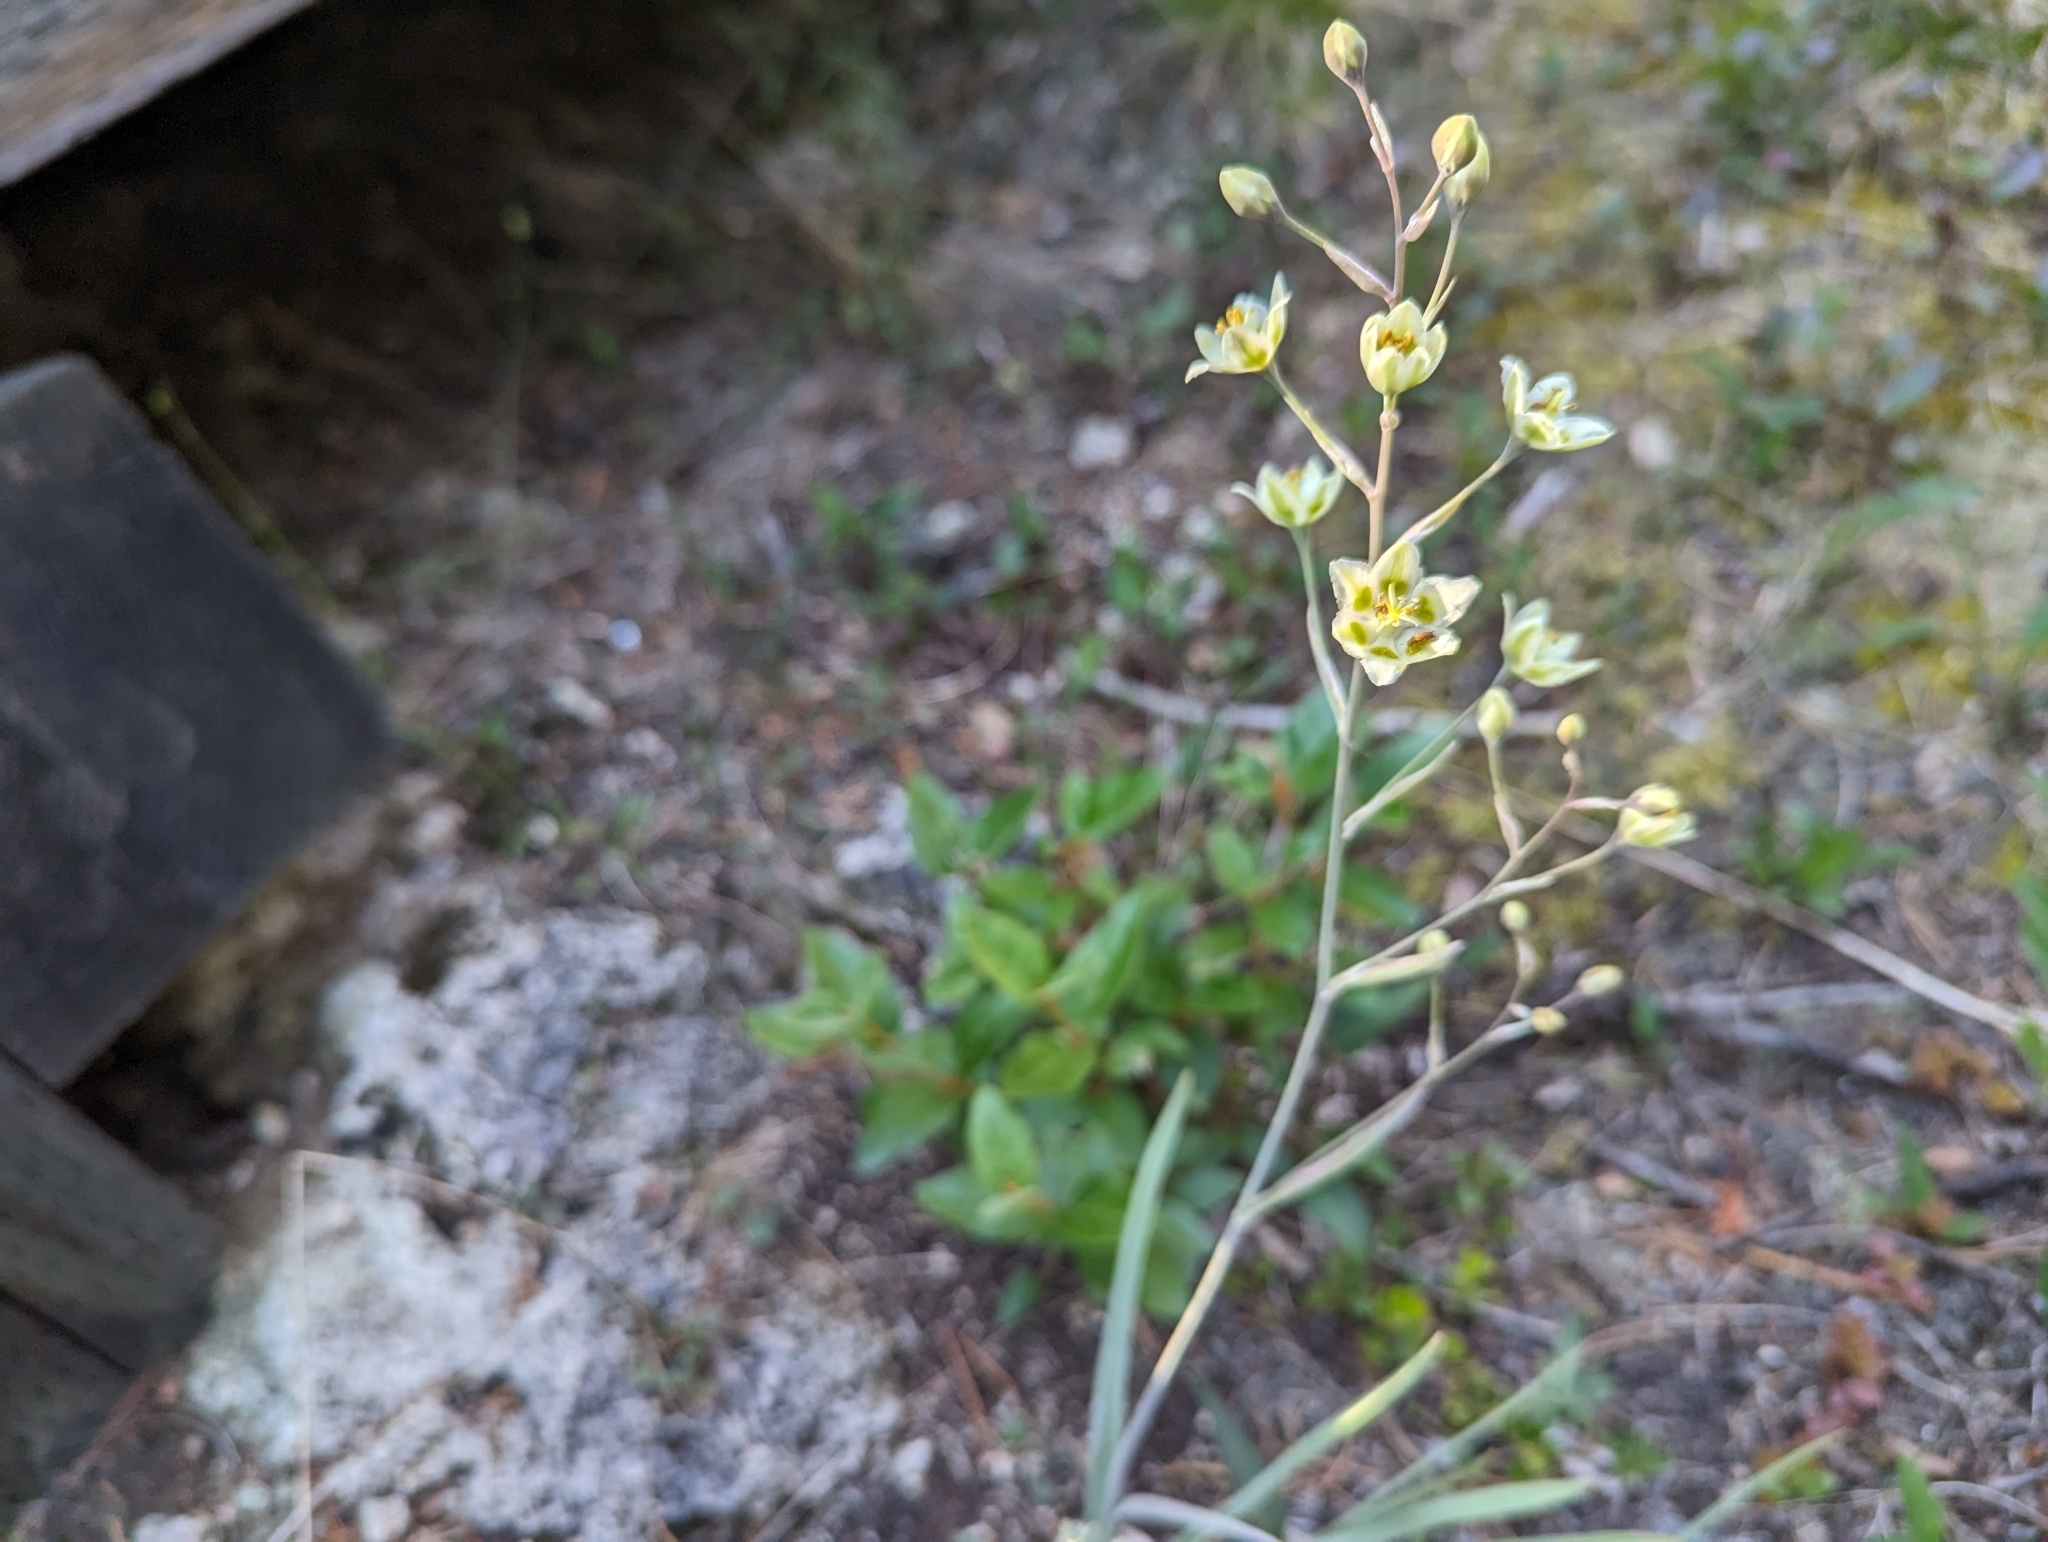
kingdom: Plantae
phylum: Tracheophyta
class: Liliopsida
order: Liliales
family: Melanthiaceae
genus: Anticlea
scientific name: Anticlea elegans
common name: Mountain death camas
